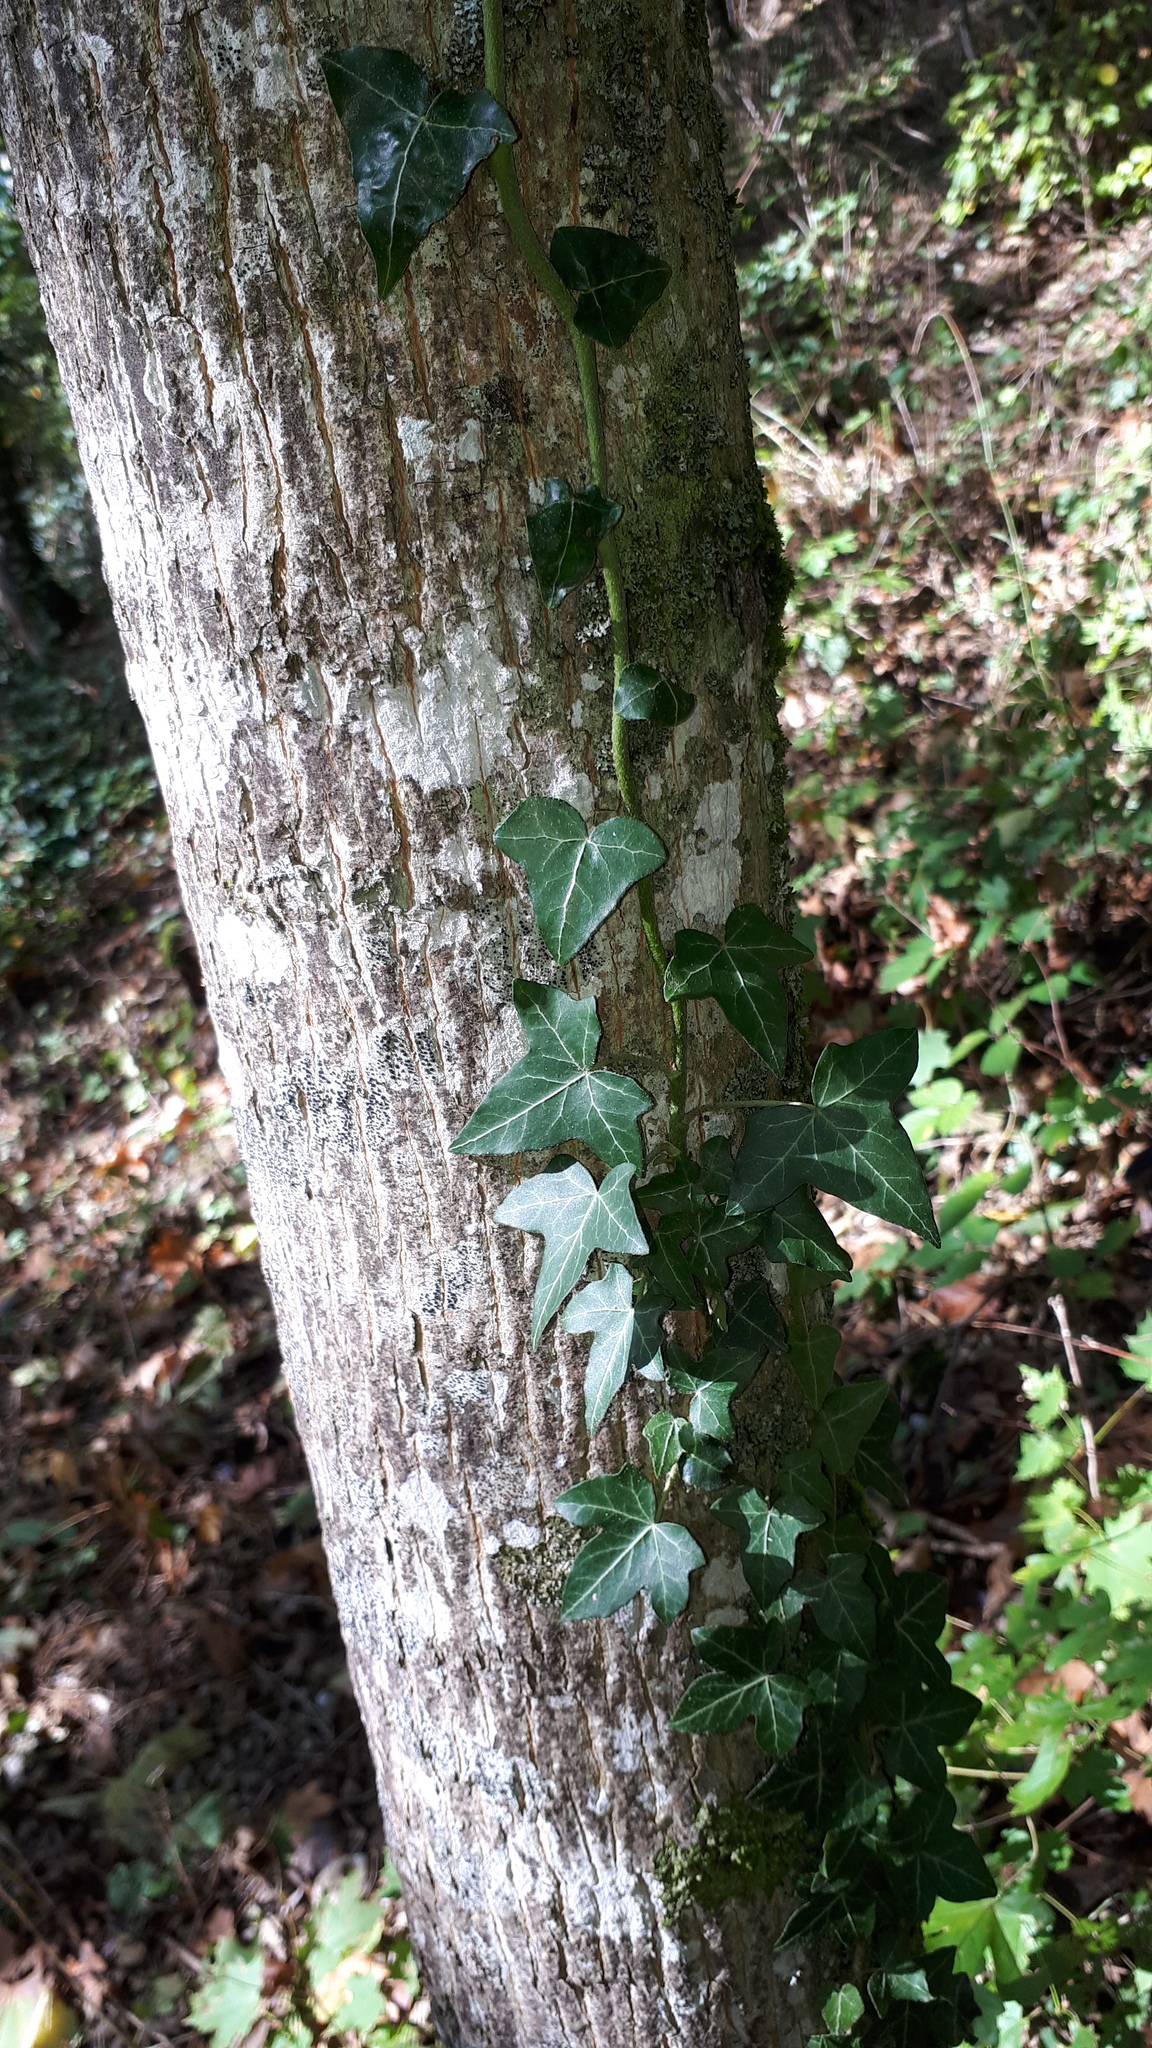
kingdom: Plantae
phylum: Tracheophyta
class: Magnoliopsida
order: Apiales
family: Araliaceae
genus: Hedera
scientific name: Hedera helix
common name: Ivy
